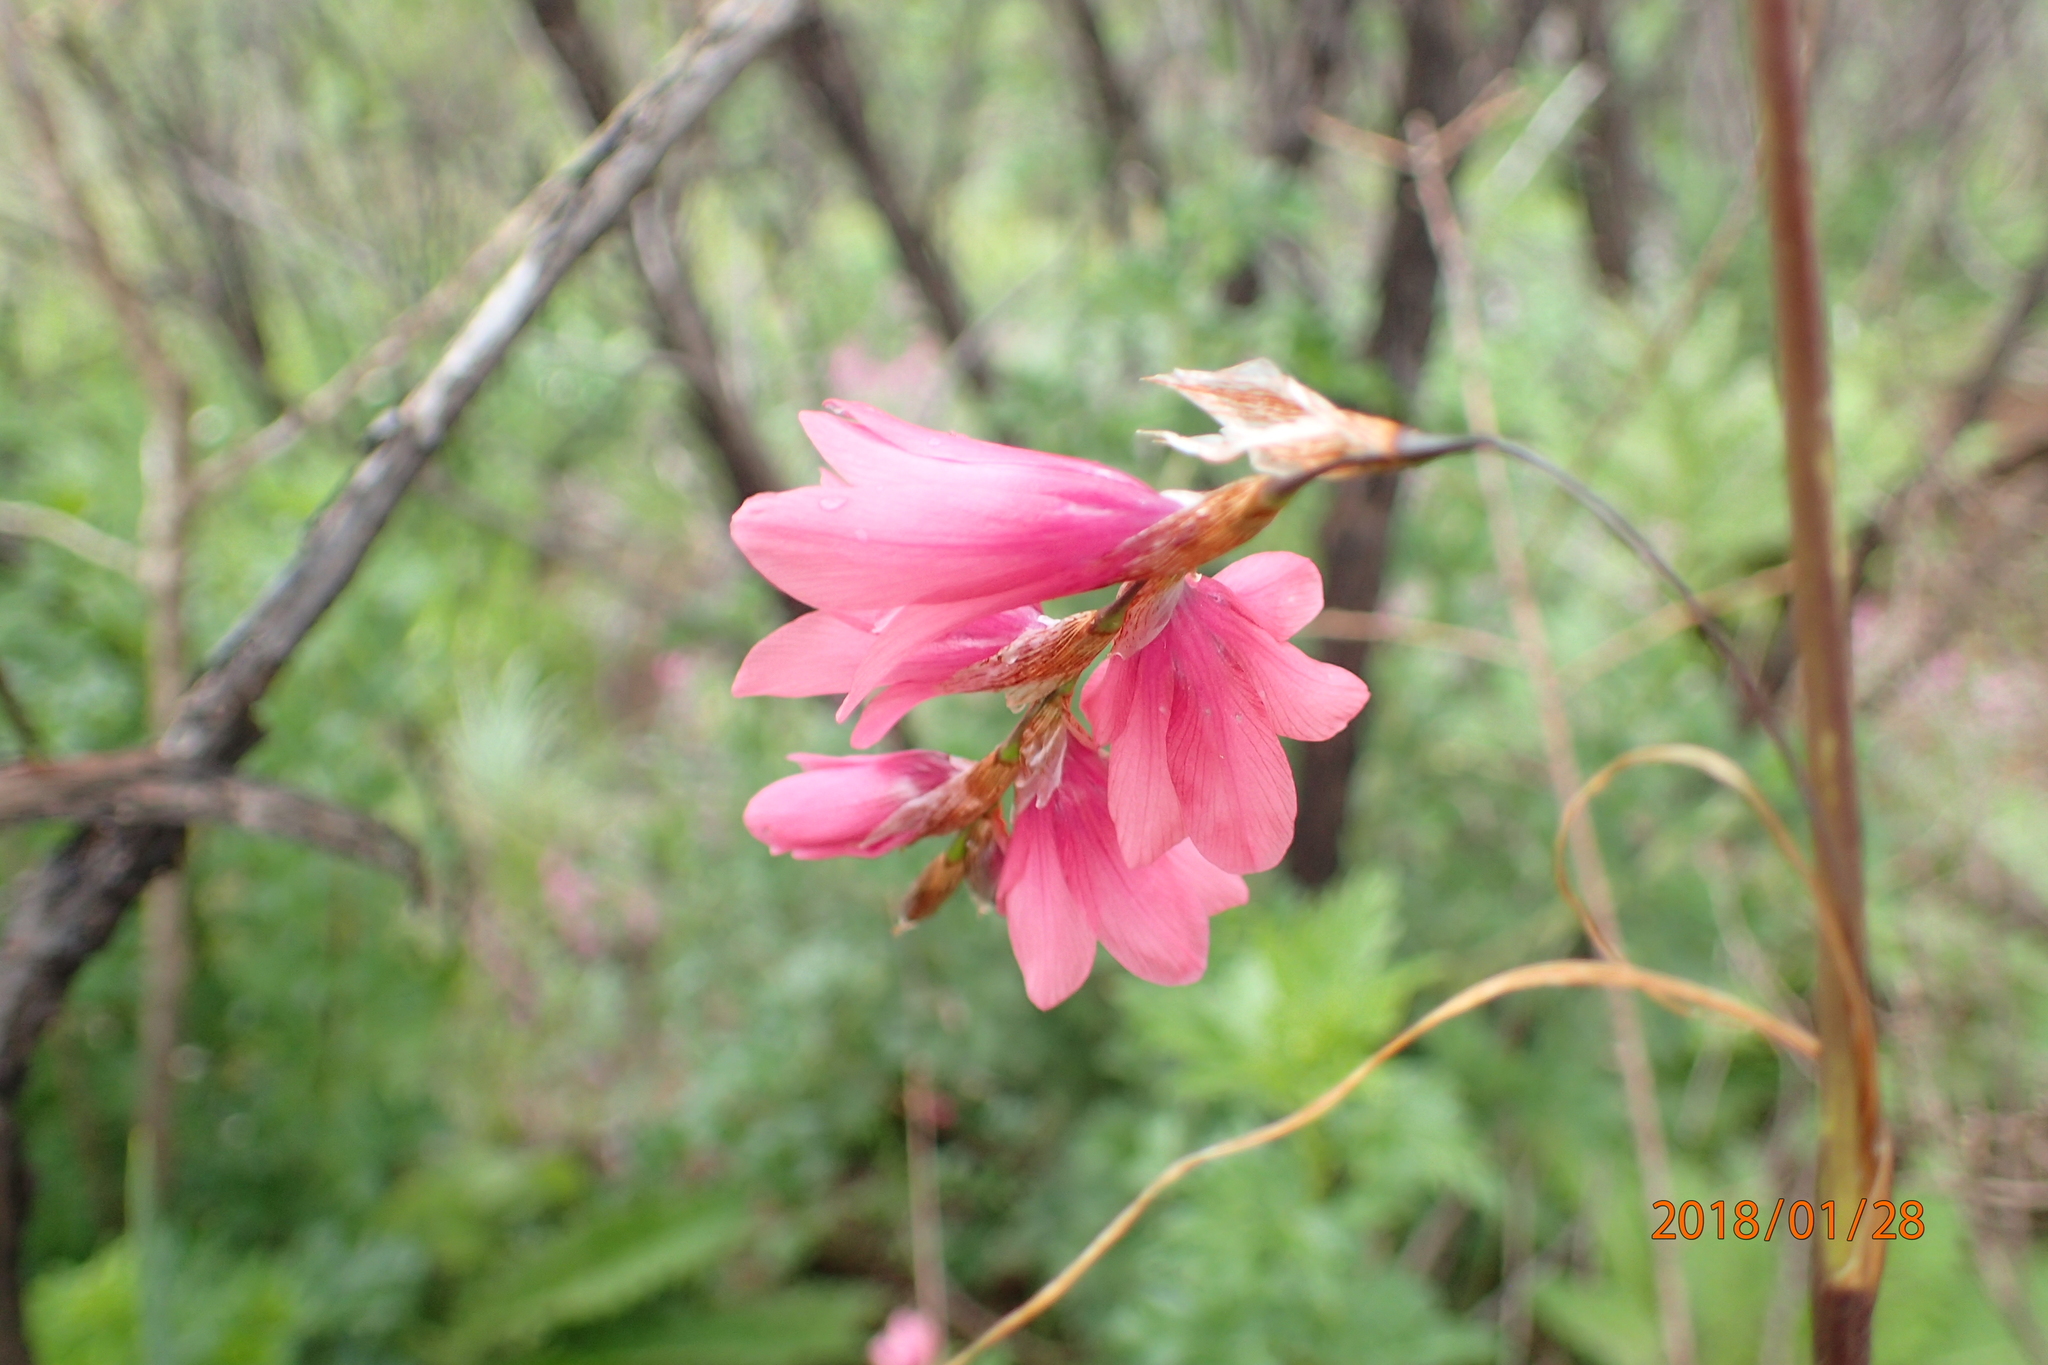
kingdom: Plantae
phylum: Tracheophyta
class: Liliopsida
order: Asparagales
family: Iridaceae
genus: Dierama
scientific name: Dierama robustum
